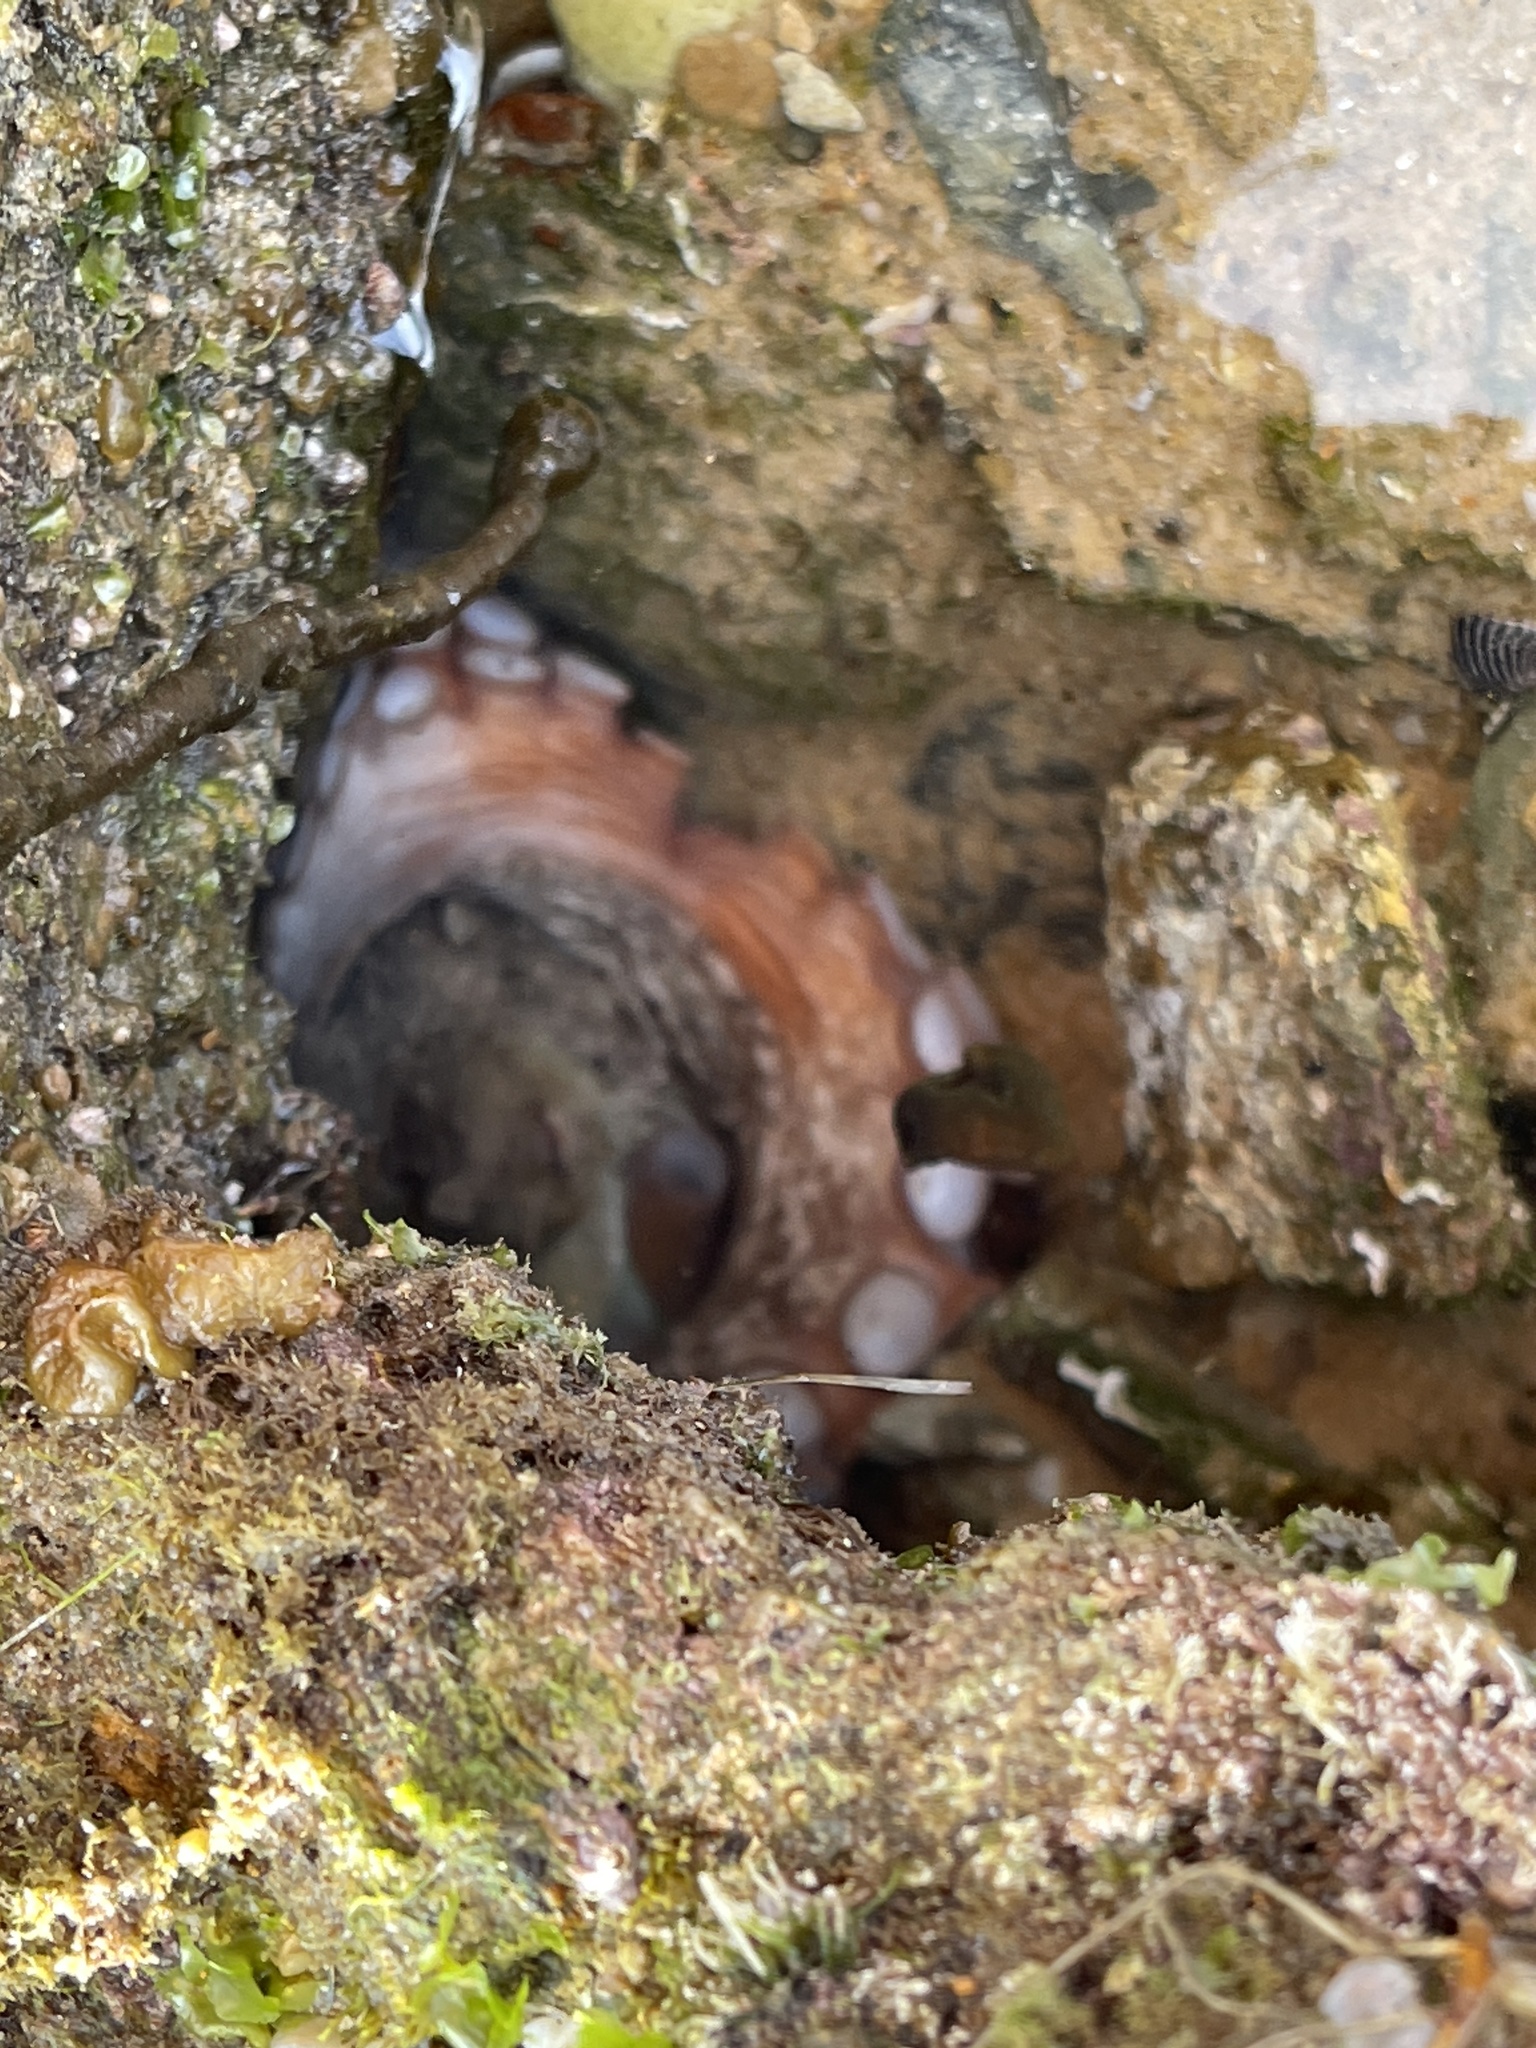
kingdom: Animalia
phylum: Mollusca
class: Cephalopoda
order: Octopoda
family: Octopodidae
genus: Octopus
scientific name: Octopus tetricus
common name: Sydney octopus
